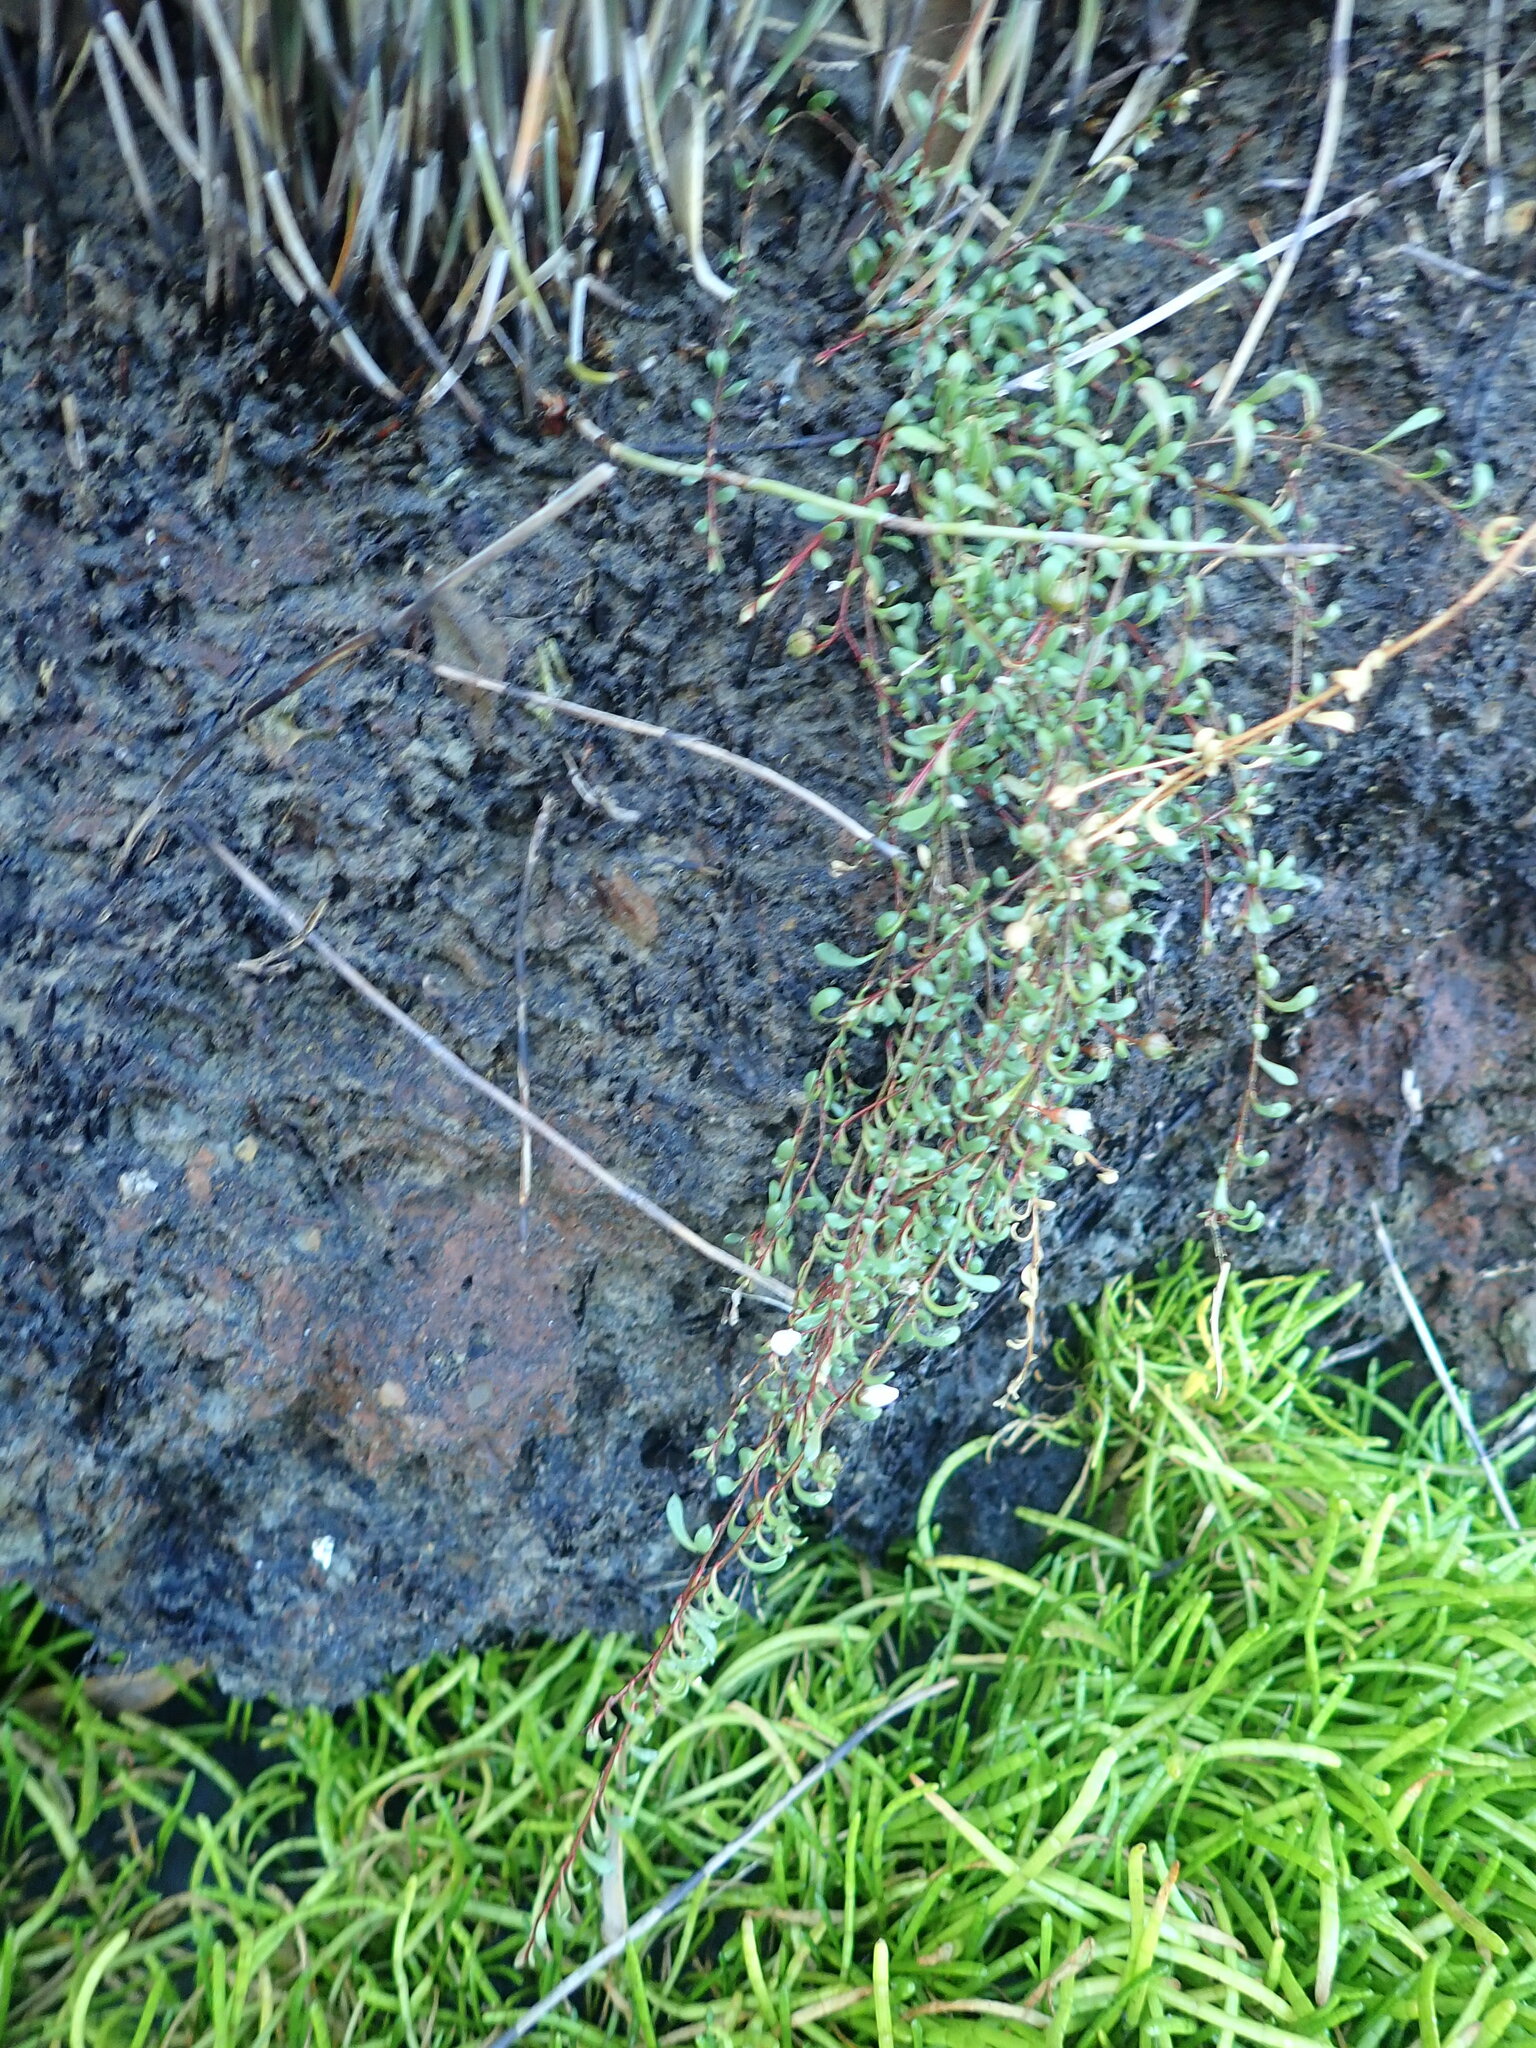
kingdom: Plantae
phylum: Tracheophyta
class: Magnoliopsida
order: Apiales
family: Apiaceae
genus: Lilaeopsis
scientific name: Lilaeopsis novae-zelandiae
